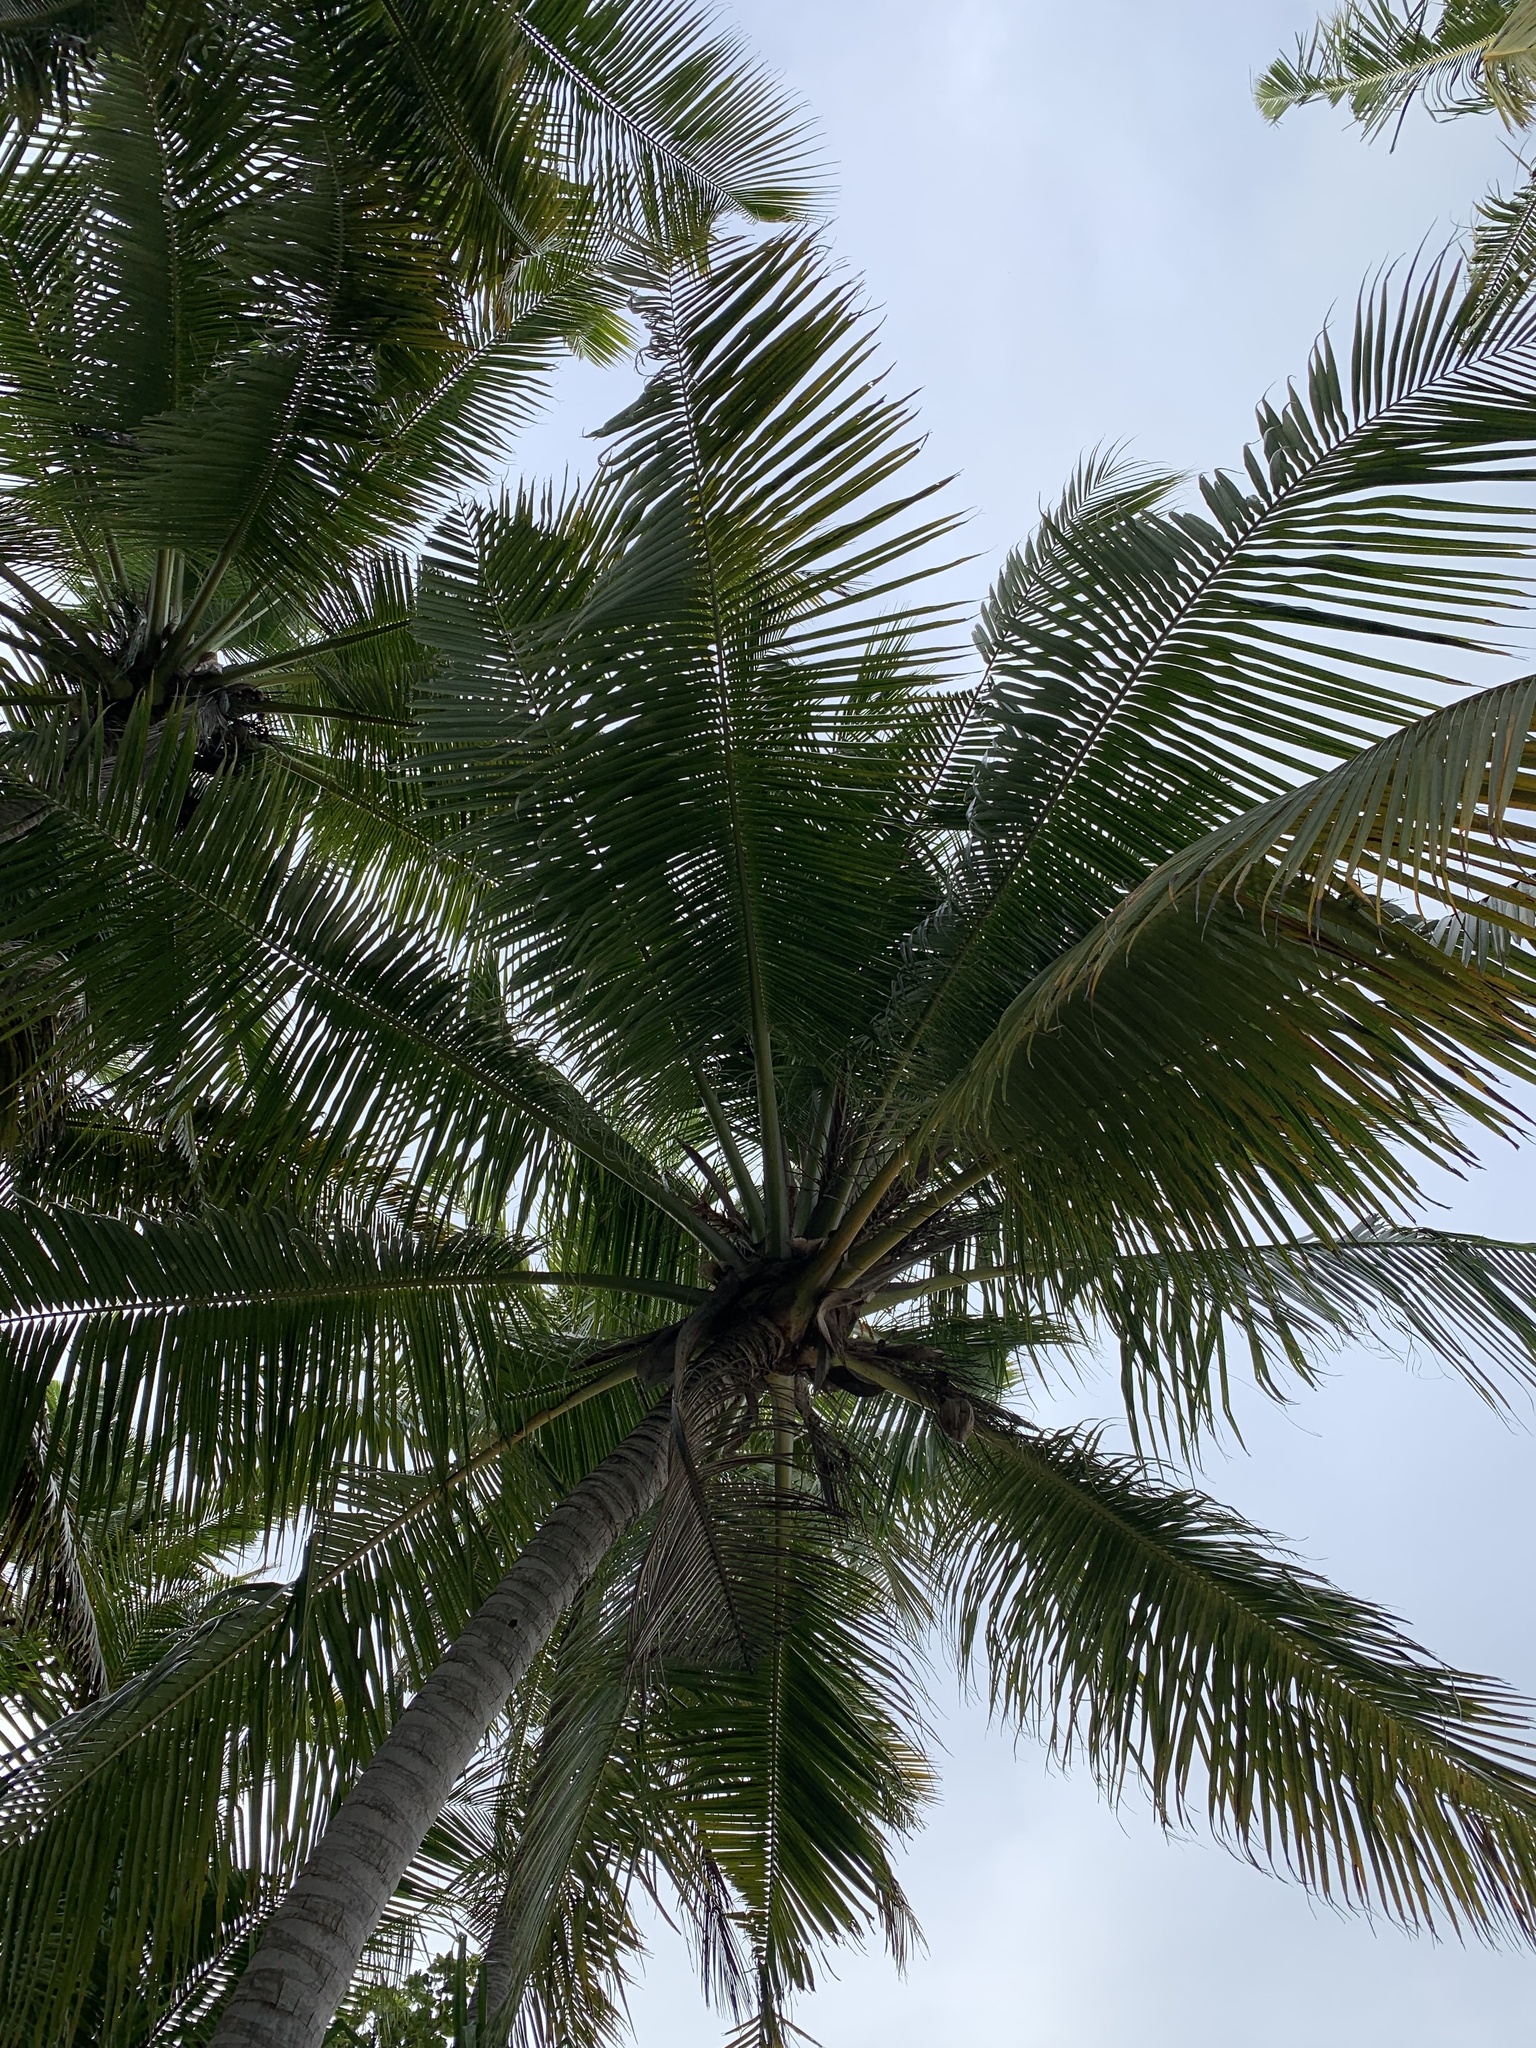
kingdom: Plantae
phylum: Tracheophyta
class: Liliopsida
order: Arecales
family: Arecaceae
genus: Cocos
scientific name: Cocos nucifera
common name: Coconut palm
